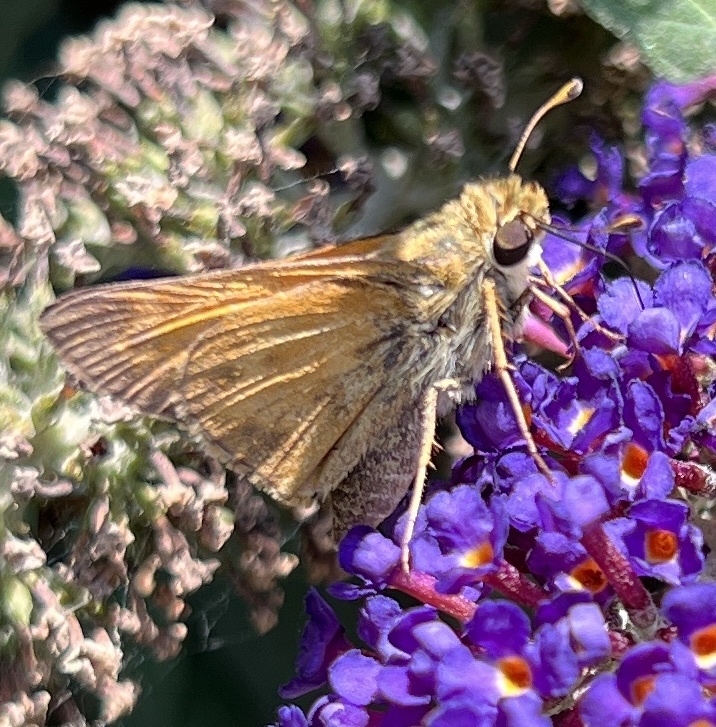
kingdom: Animalia
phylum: Arthropoda
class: Insecta
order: Lepidoptera
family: Hesperiidae
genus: Atalopedes
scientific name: Atalopedes
